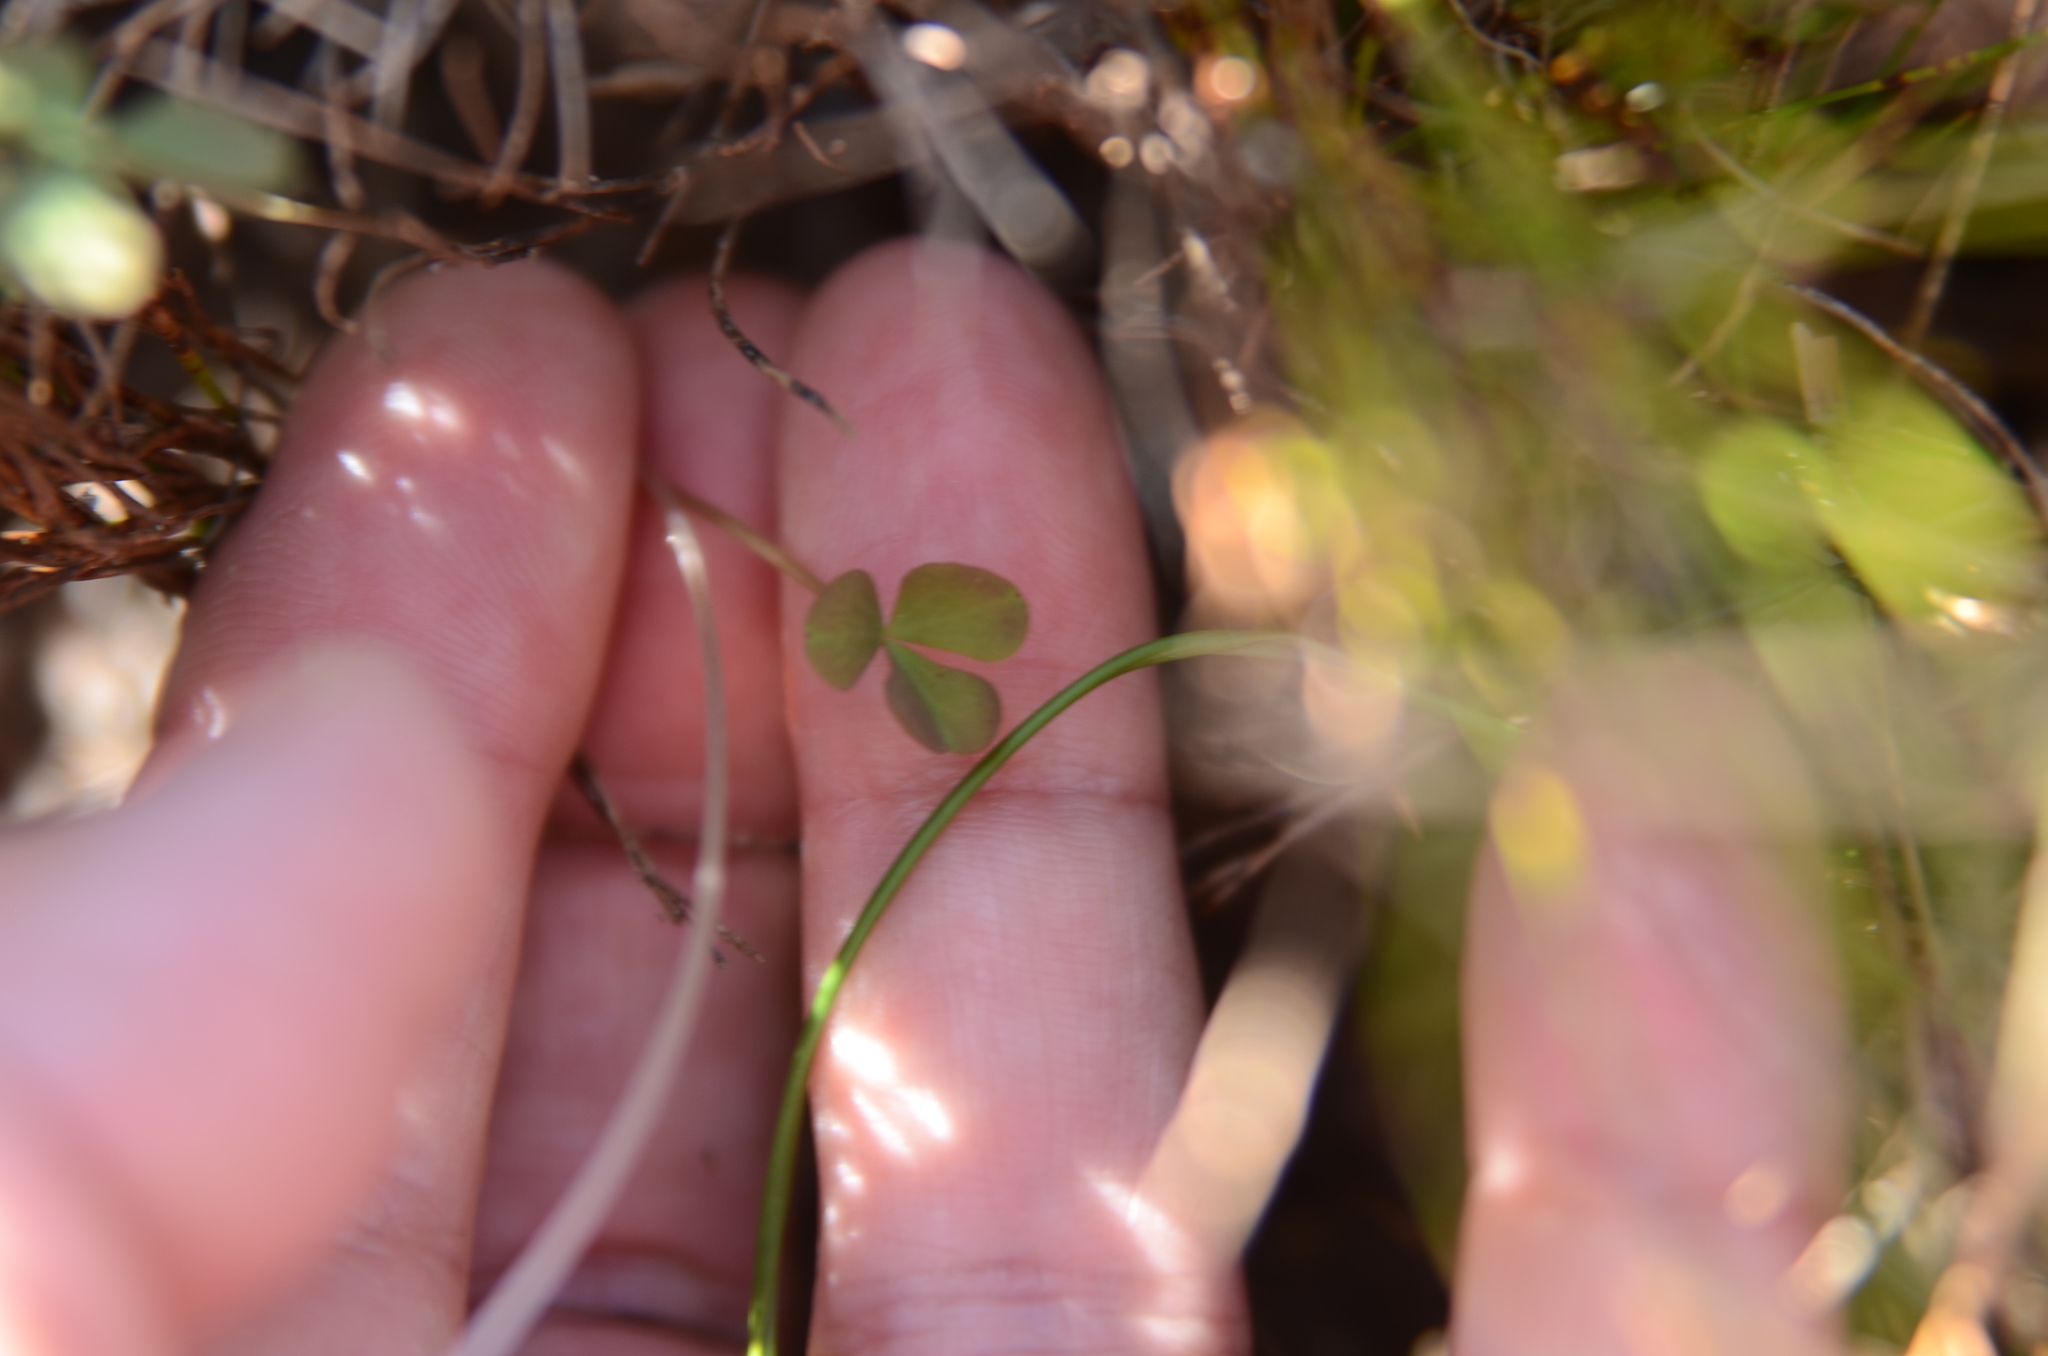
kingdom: Plantae
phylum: Tracheophyta
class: Magnoliopsida
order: Oxalidales
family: Oxalidaceae
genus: Oxalis
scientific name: Oxalis depressa
